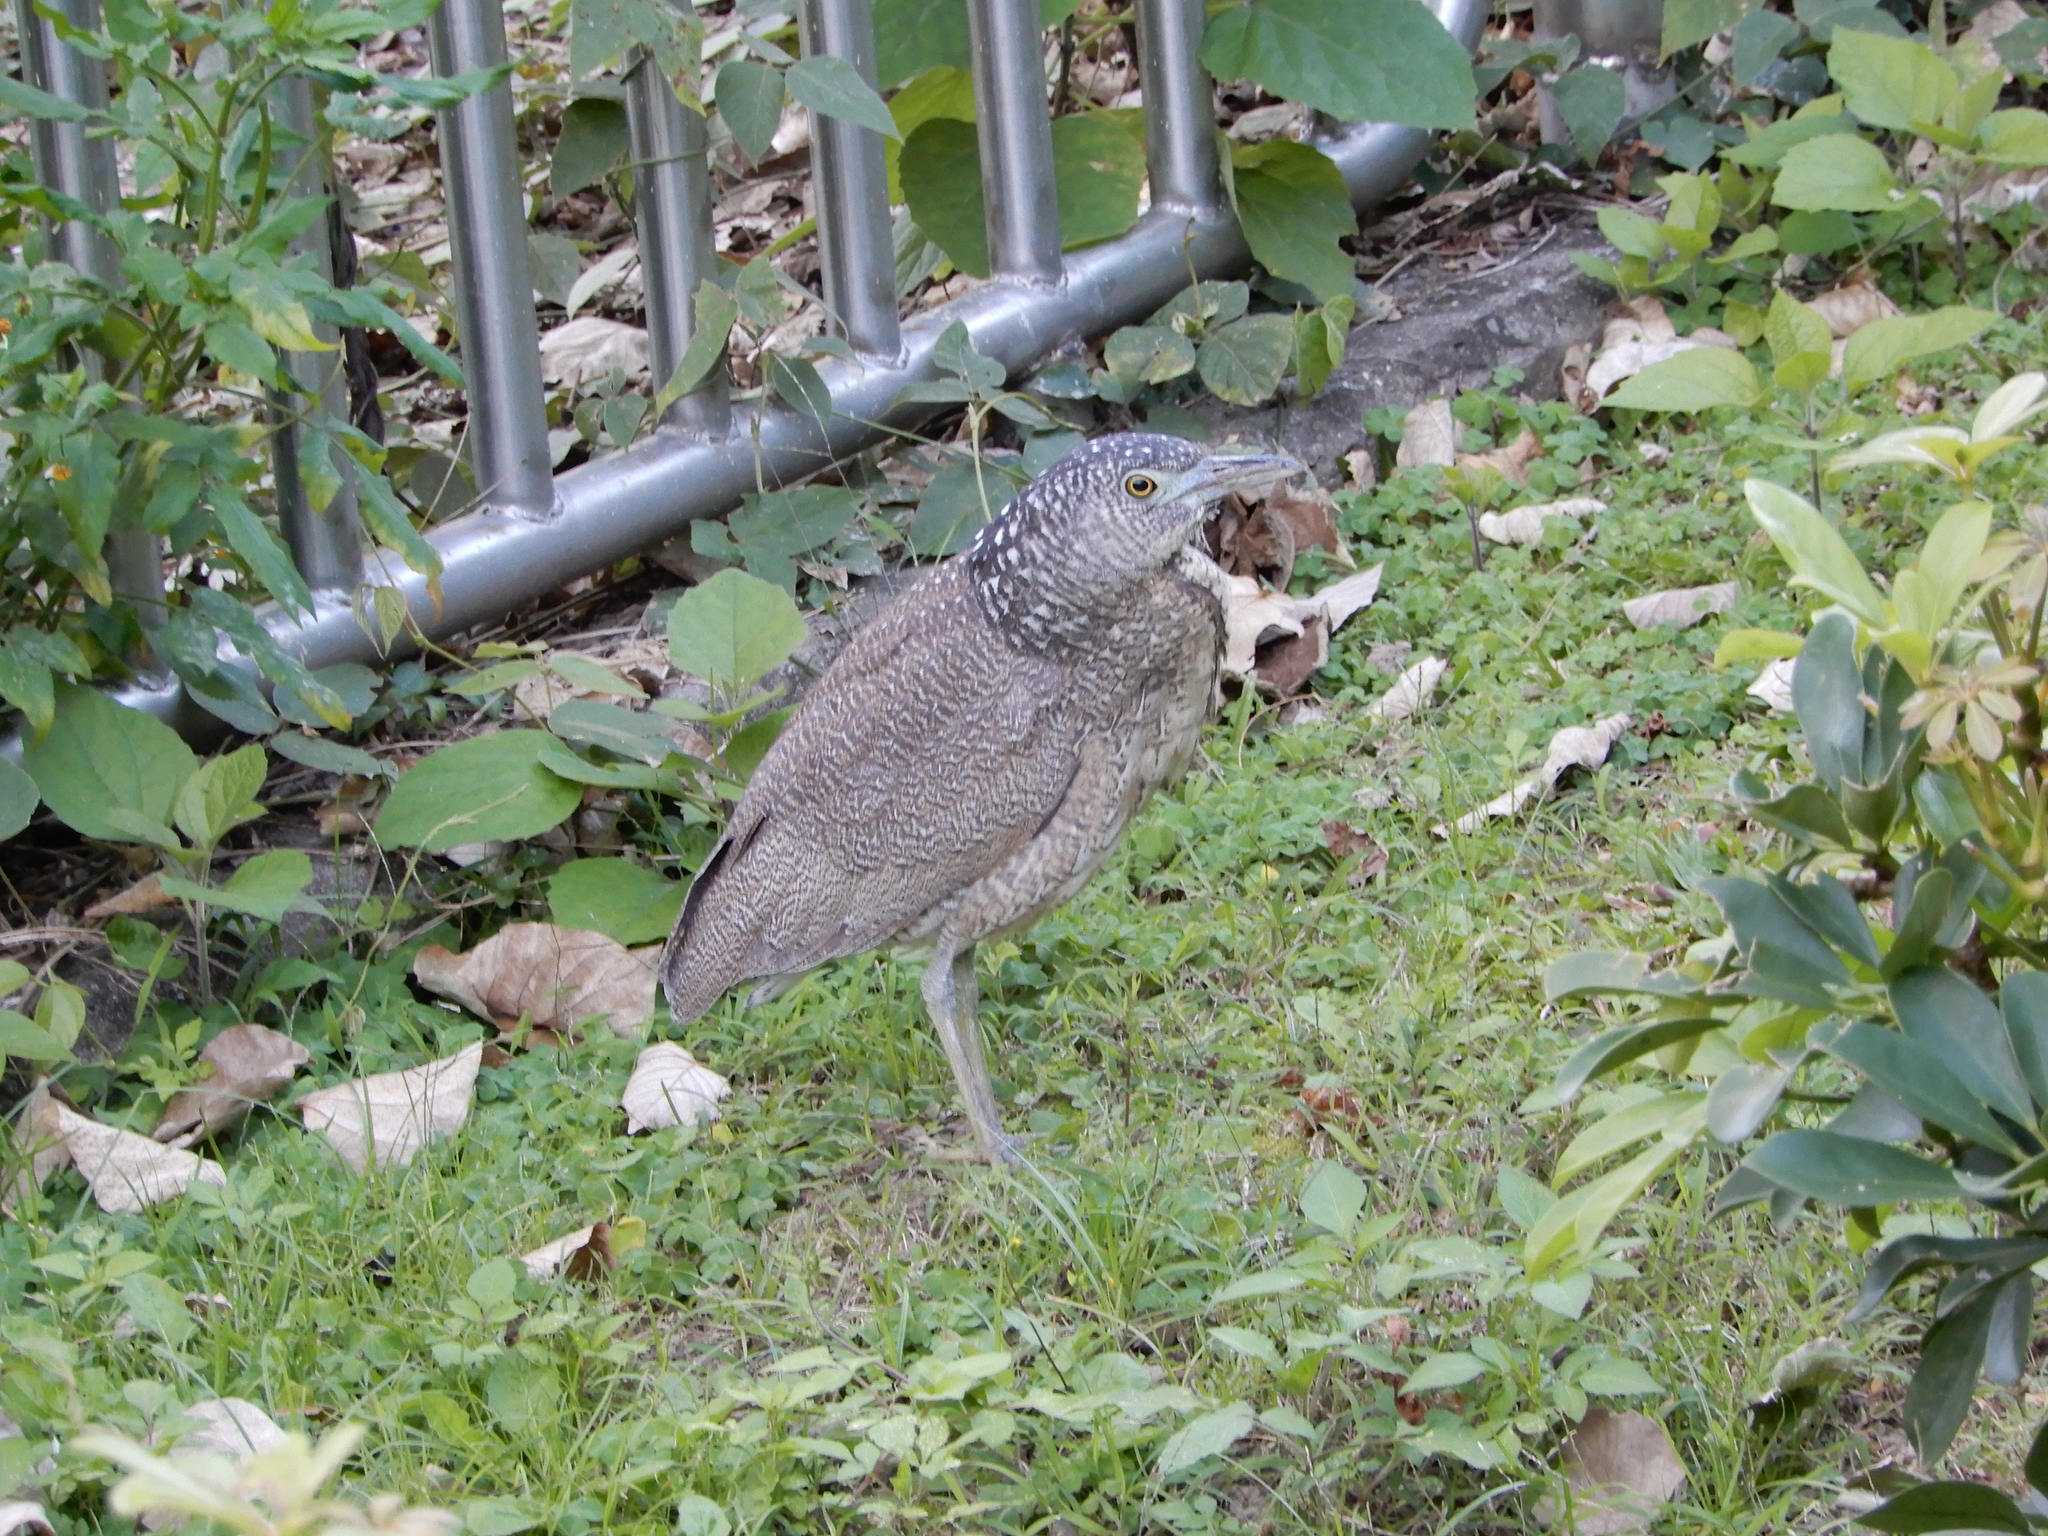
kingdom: Animalia
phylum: Chordata
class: Aves
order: Pelecaniformes
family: Ardeidae
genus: Gorsachius
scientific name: Gorsachius melanolophus
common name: Malayan night heron
